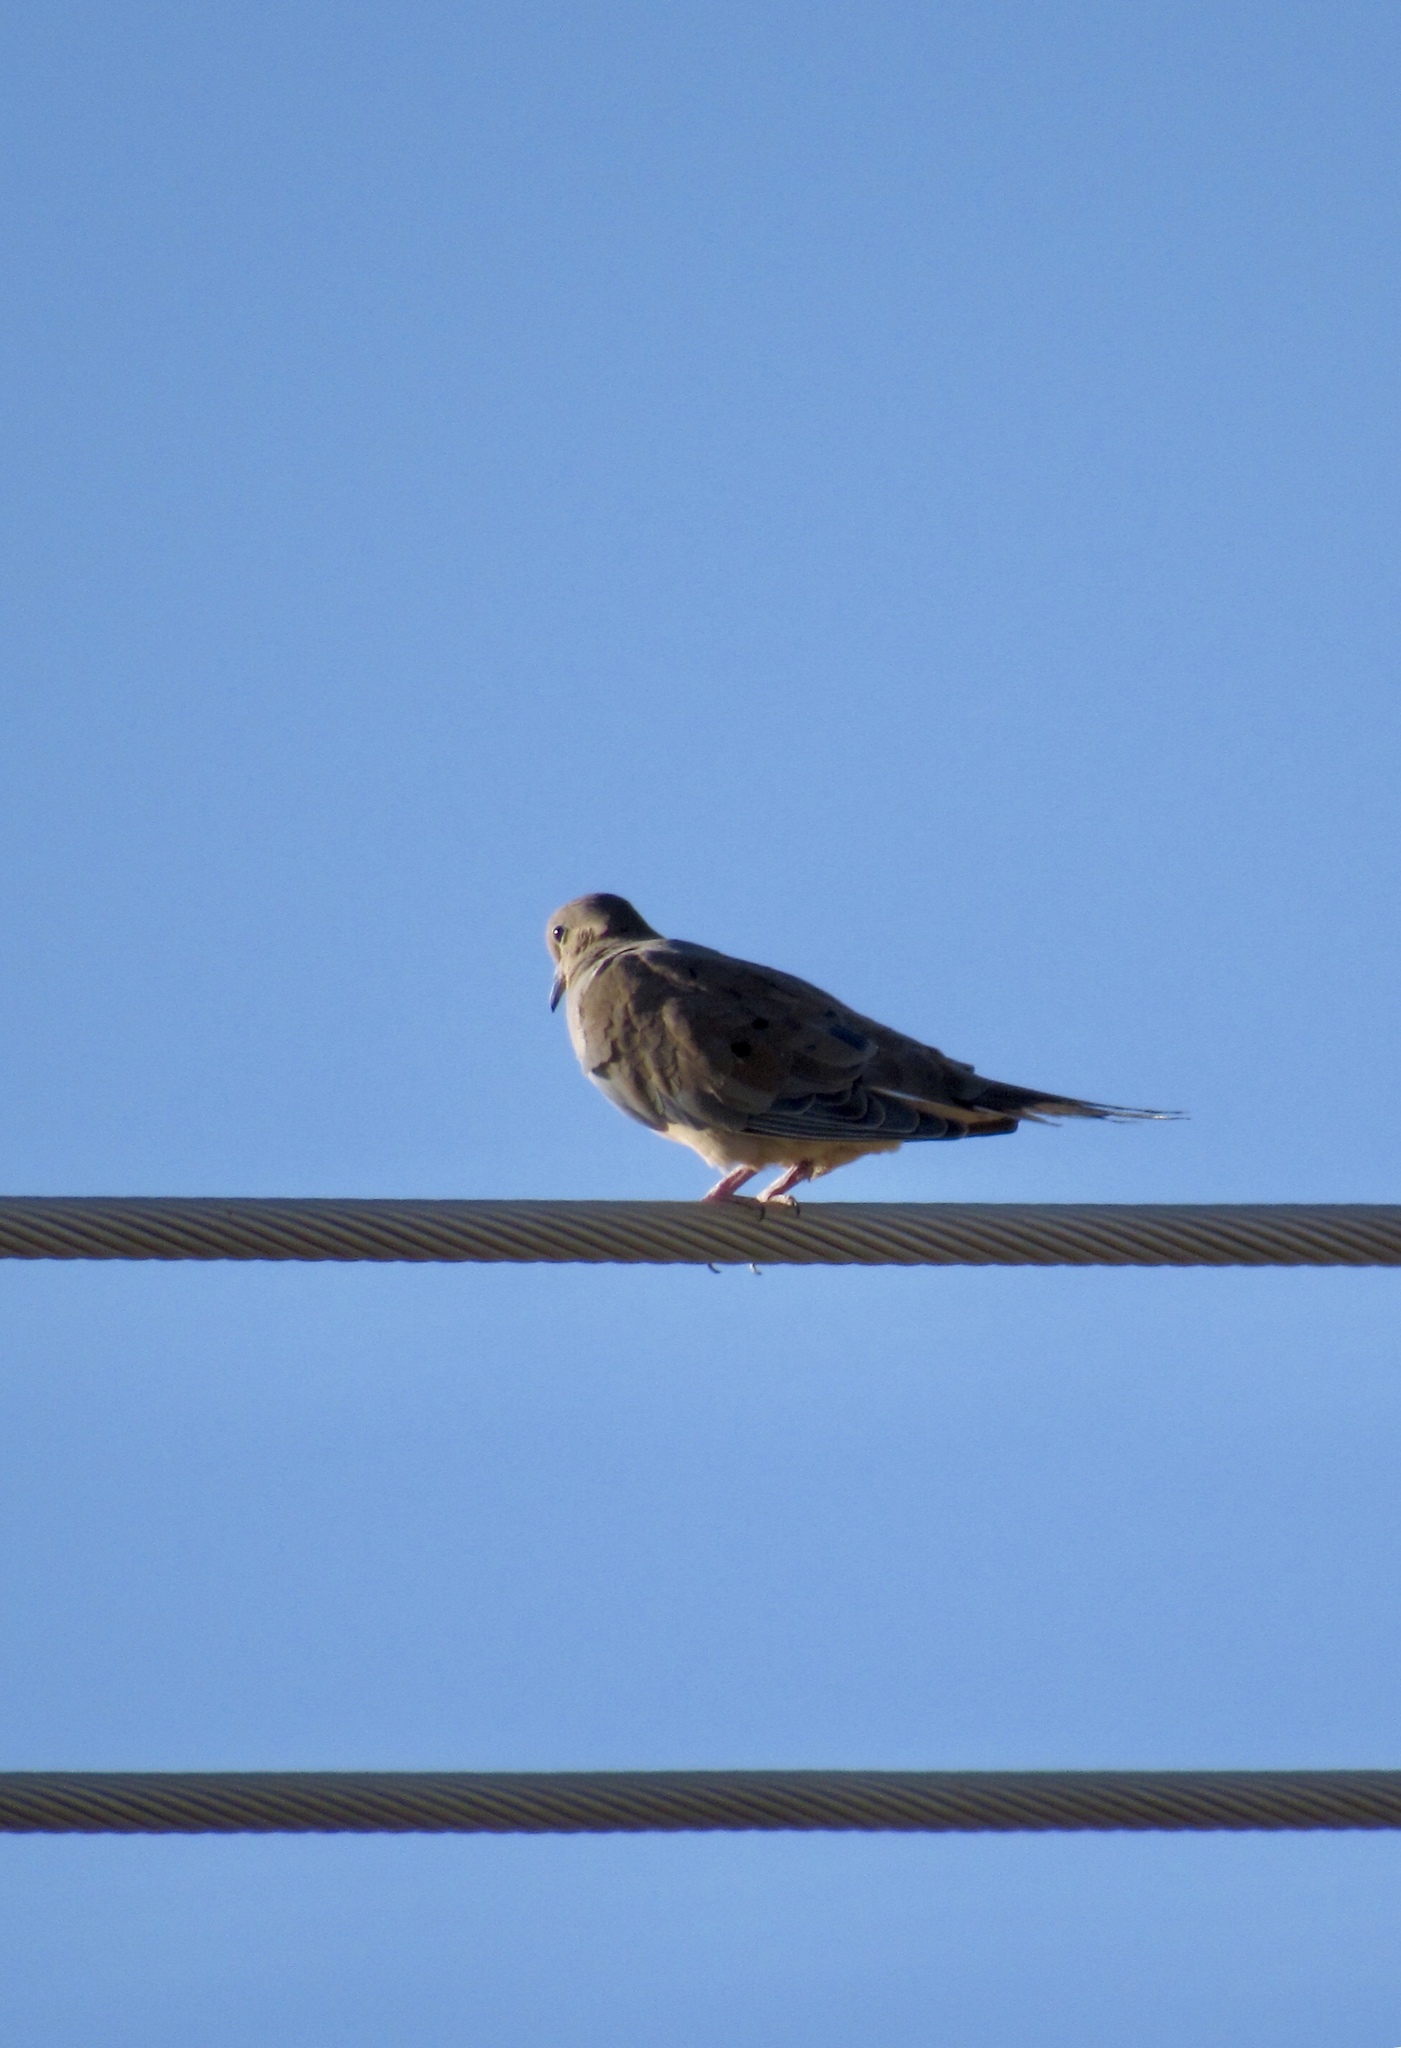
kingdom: Animalia
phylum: Chordata
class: Aves
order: Columbiformes
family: Columbidae
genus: Zenaida
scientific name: Zenaida macroura
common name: Mourning dove
